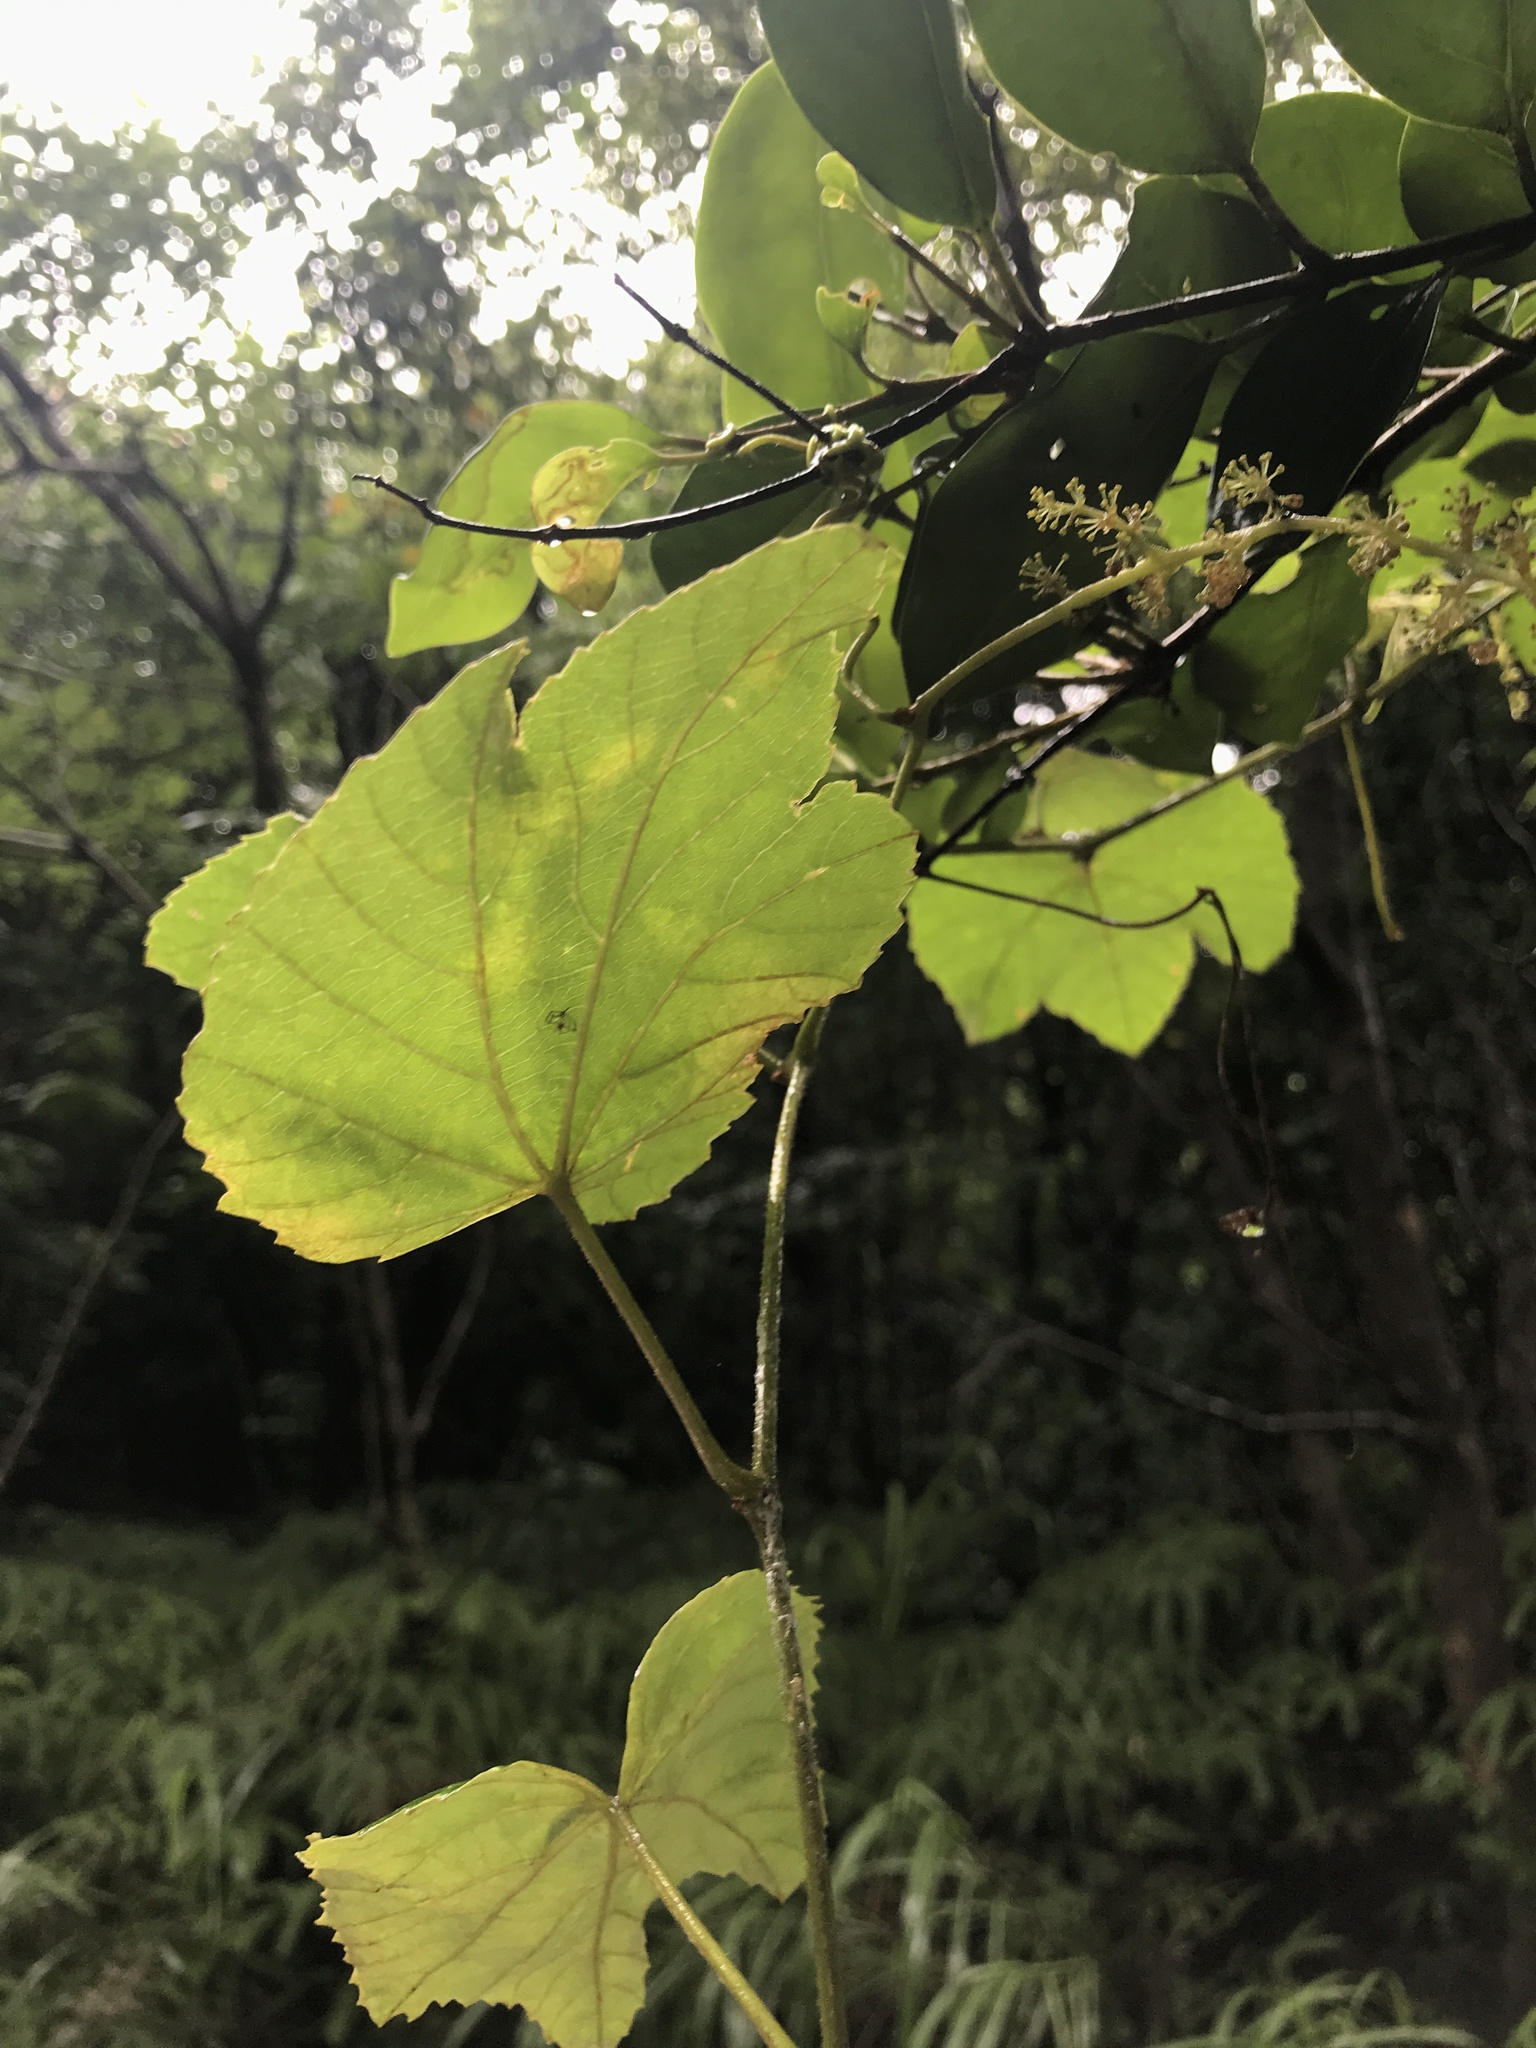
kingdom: Plantae
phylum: Tracheophyta
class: Magnoliopsida
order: Vitales
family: Vitaceae
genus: Vitis
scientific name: Vitis ficifolia
